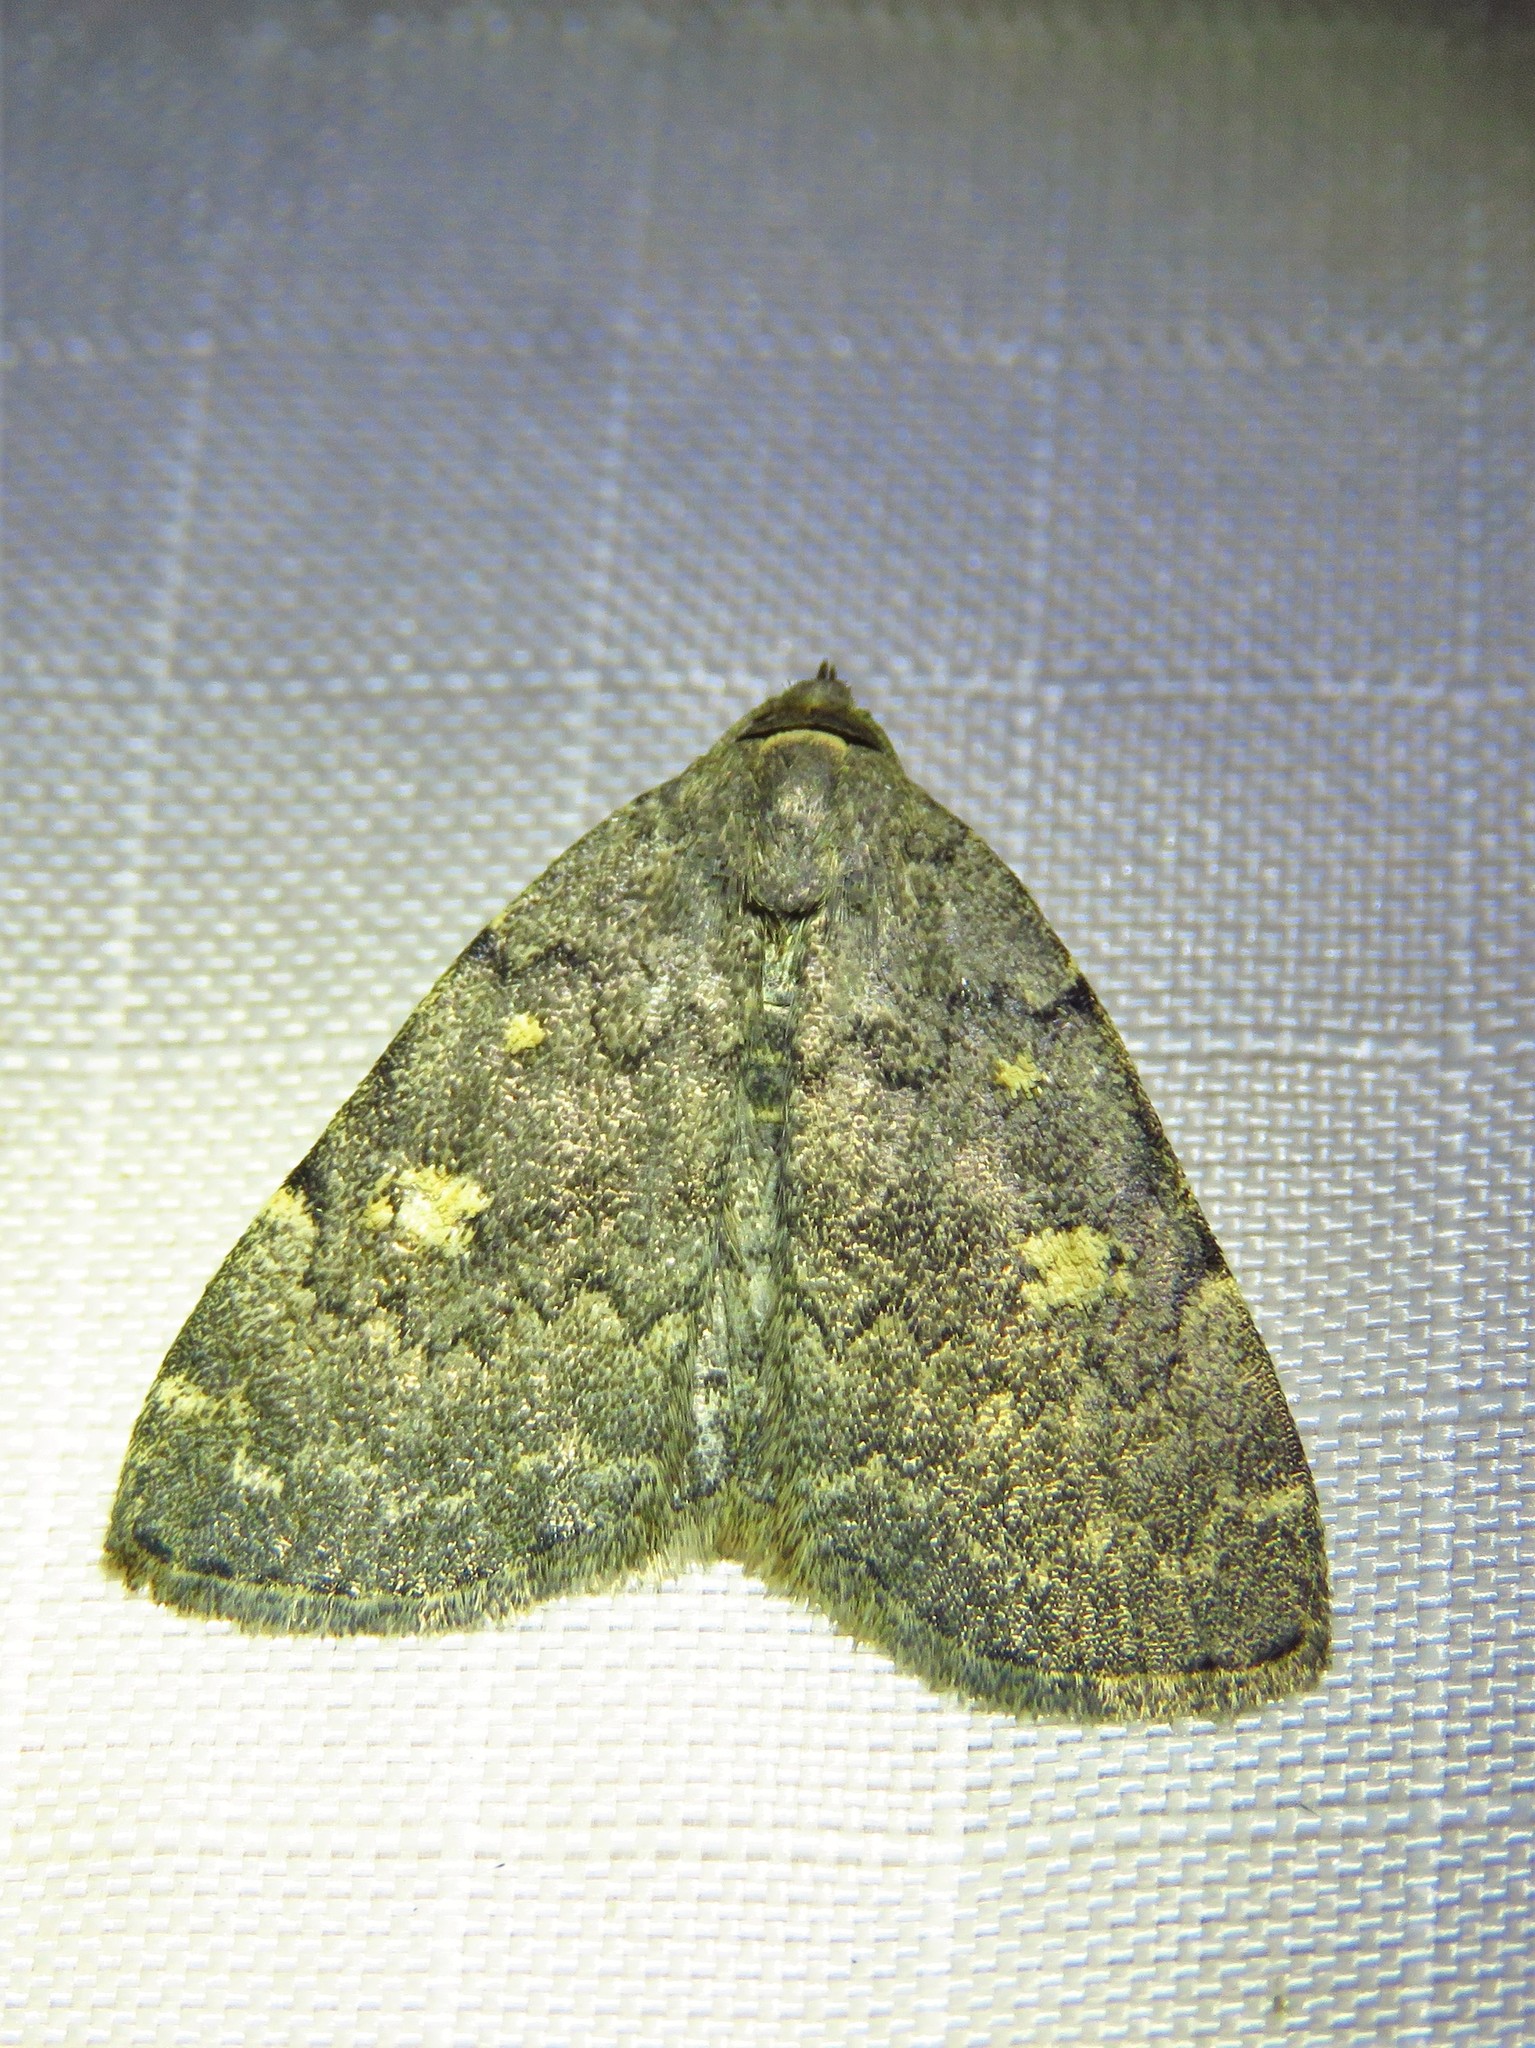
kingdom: Animalia
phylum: Arthropoda
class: Insecta
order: Lepidoptera
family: Erebidae
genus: Idia
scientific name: Idia aemula
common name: Common idia moth
